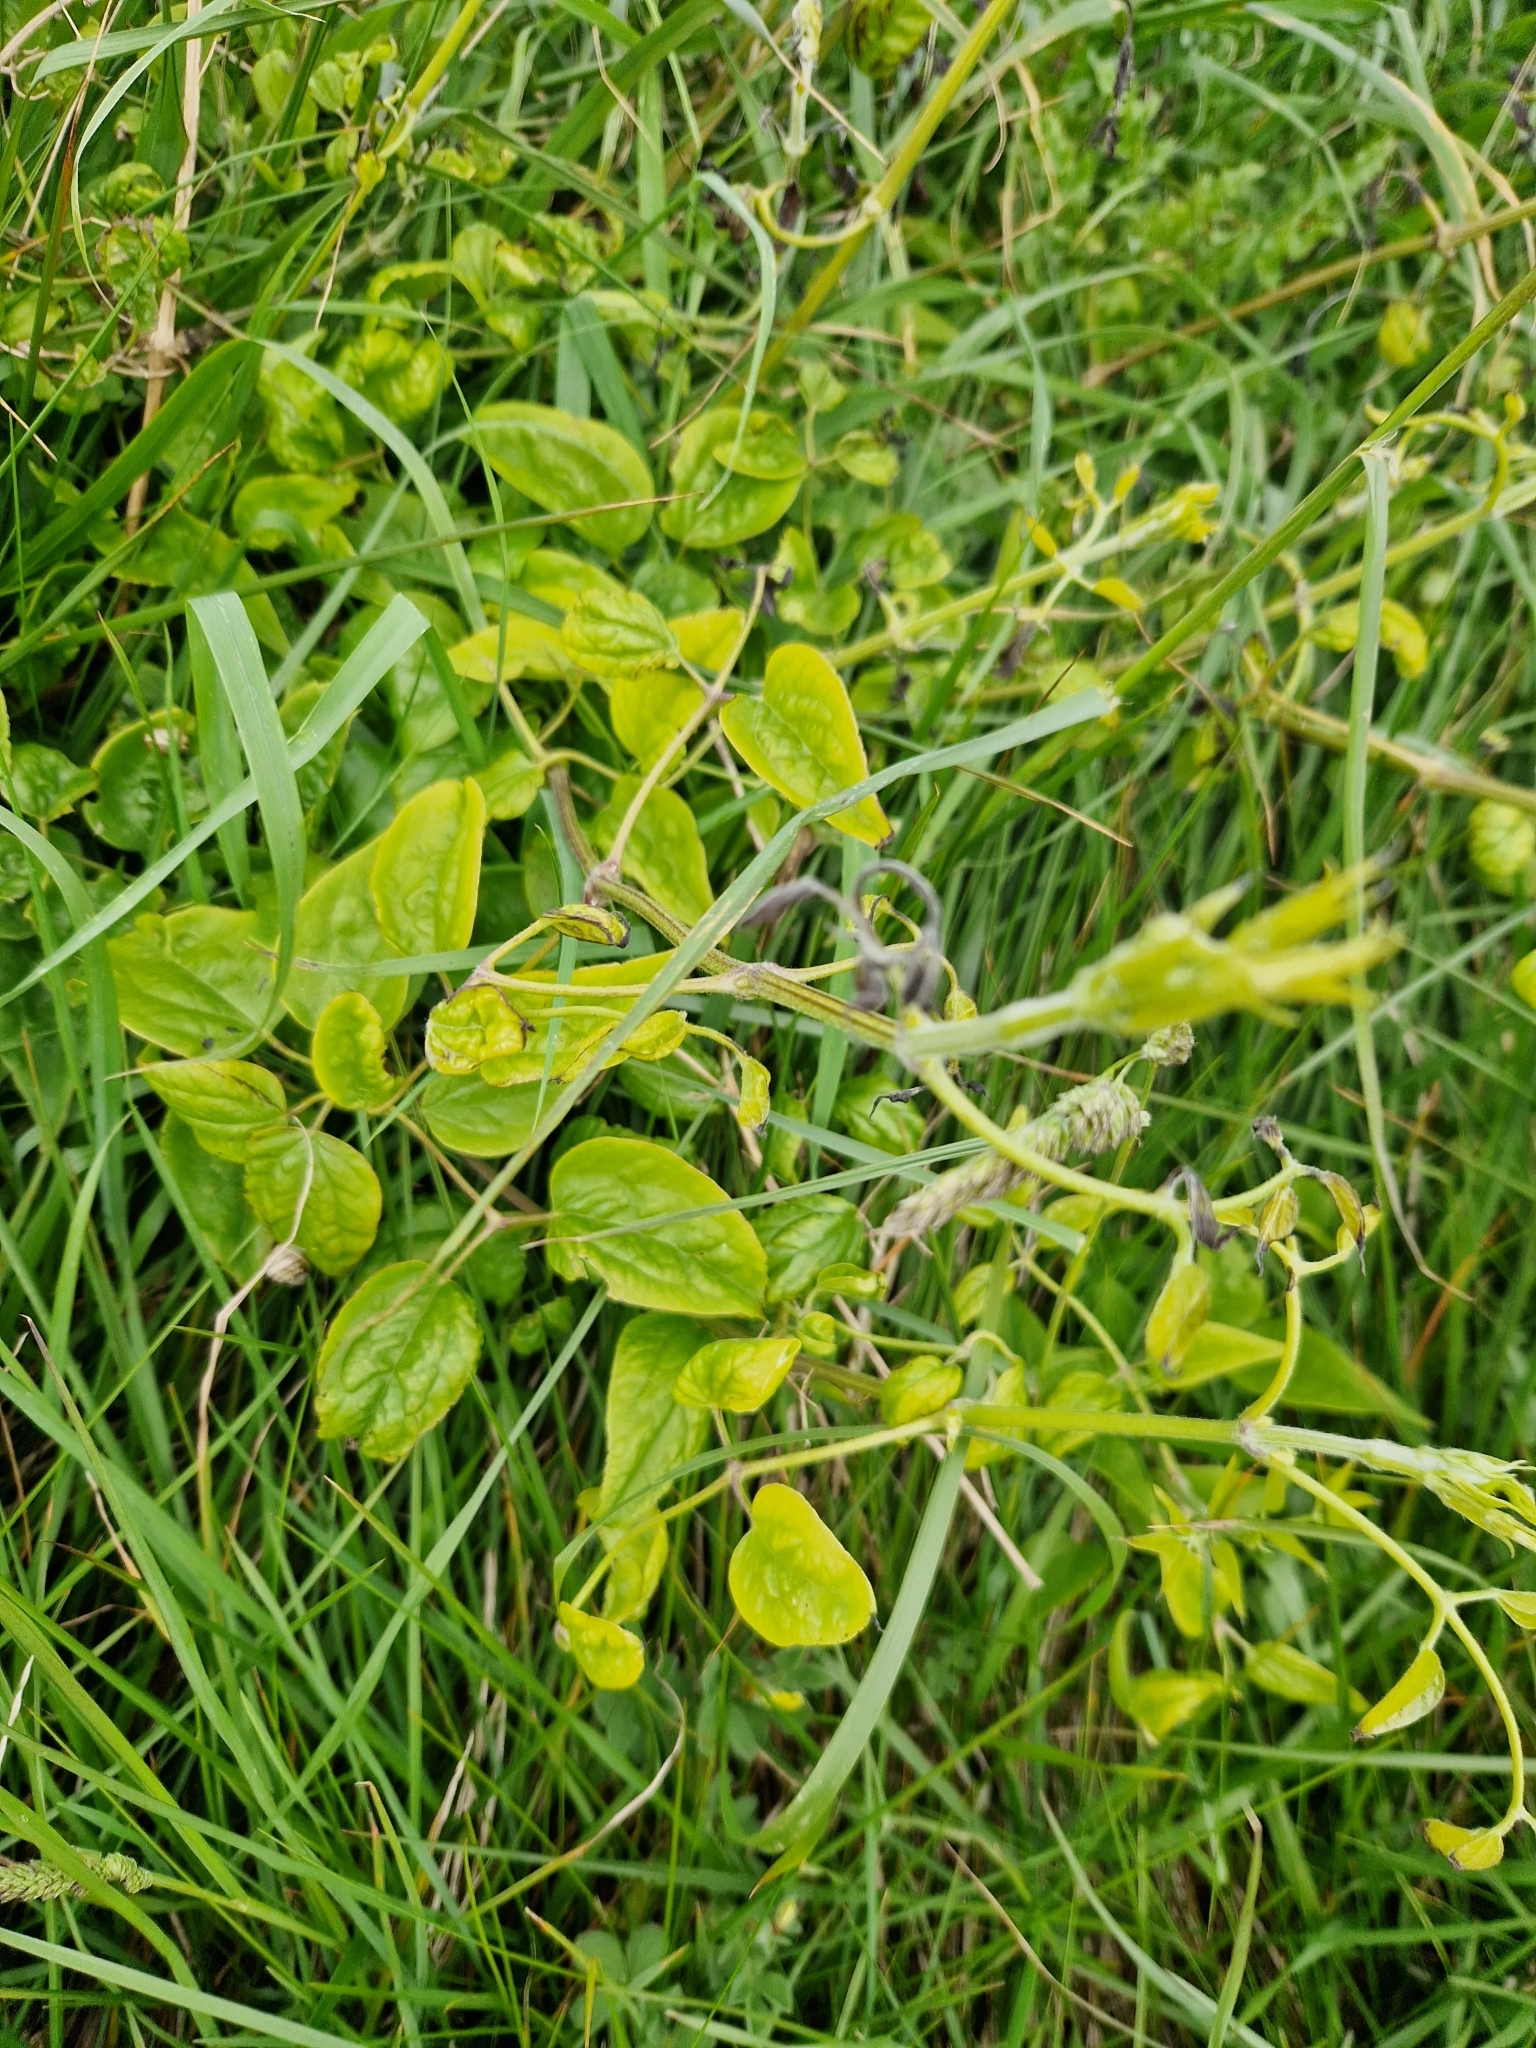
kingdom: Plantae
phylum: Tracheophyta
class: Magnoliopsida
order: Ranunculales
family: Ranunculaceae
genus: Clematis
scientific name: Clematis vitalba
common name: Evergreen clematis
